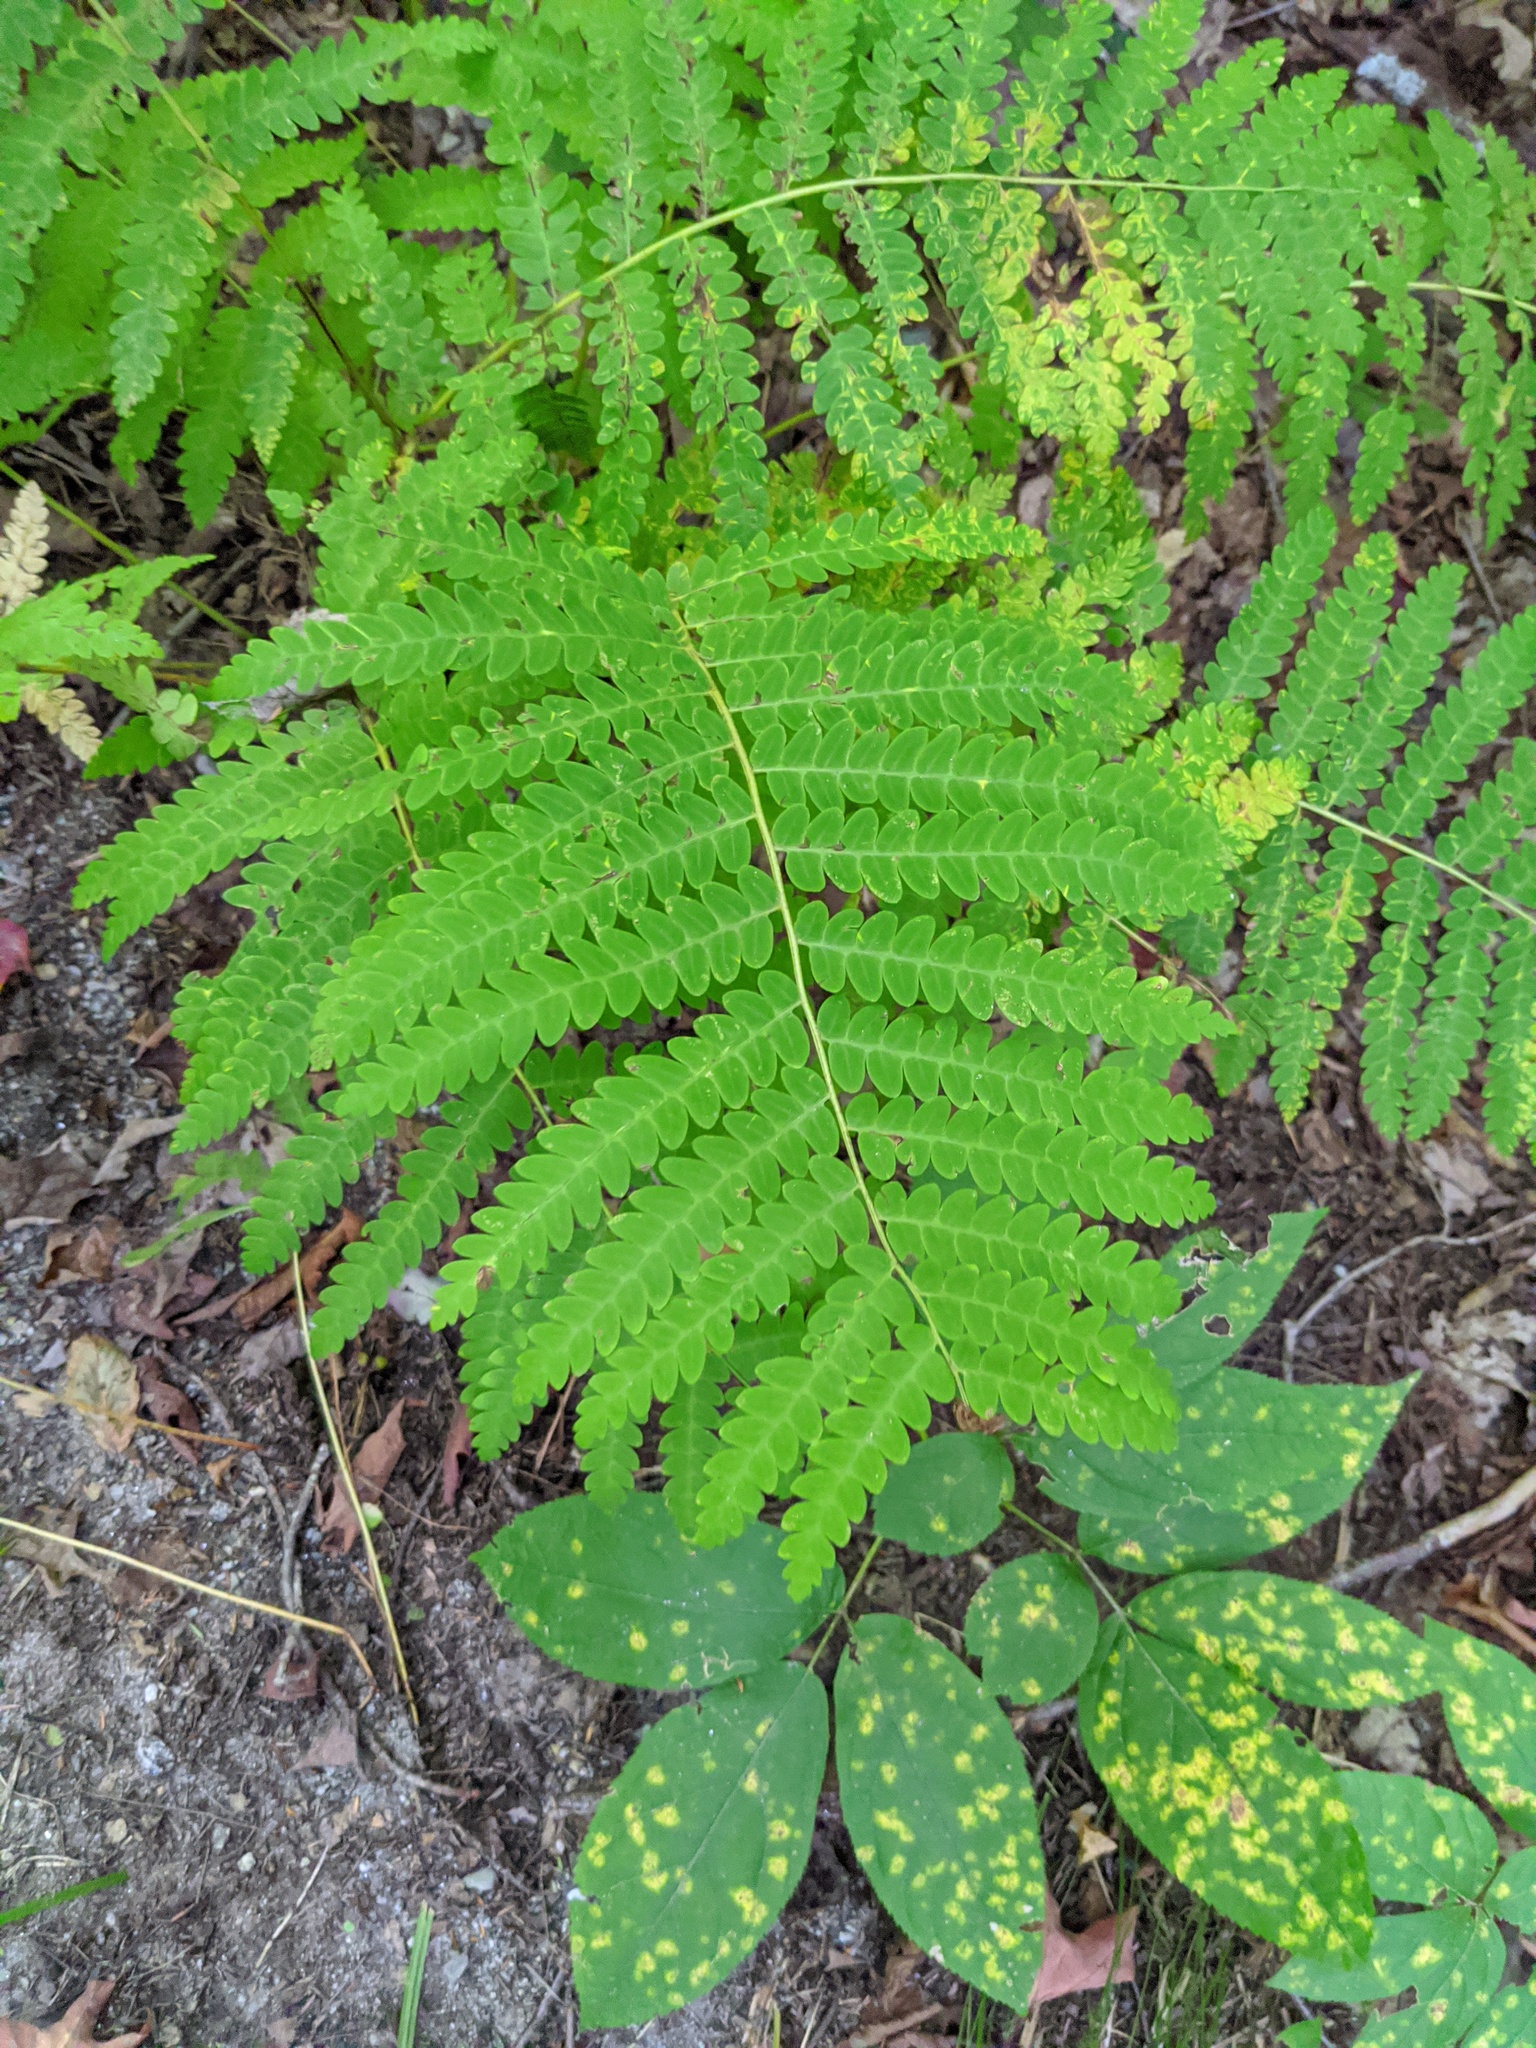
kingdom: Plantae
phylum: Tracheophyta
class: Polypodiopsida
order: Osmundales
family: Osmundaceae
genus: Claytosmunda
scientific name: Claytosmunda claytoniana
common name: Clayton's fern
